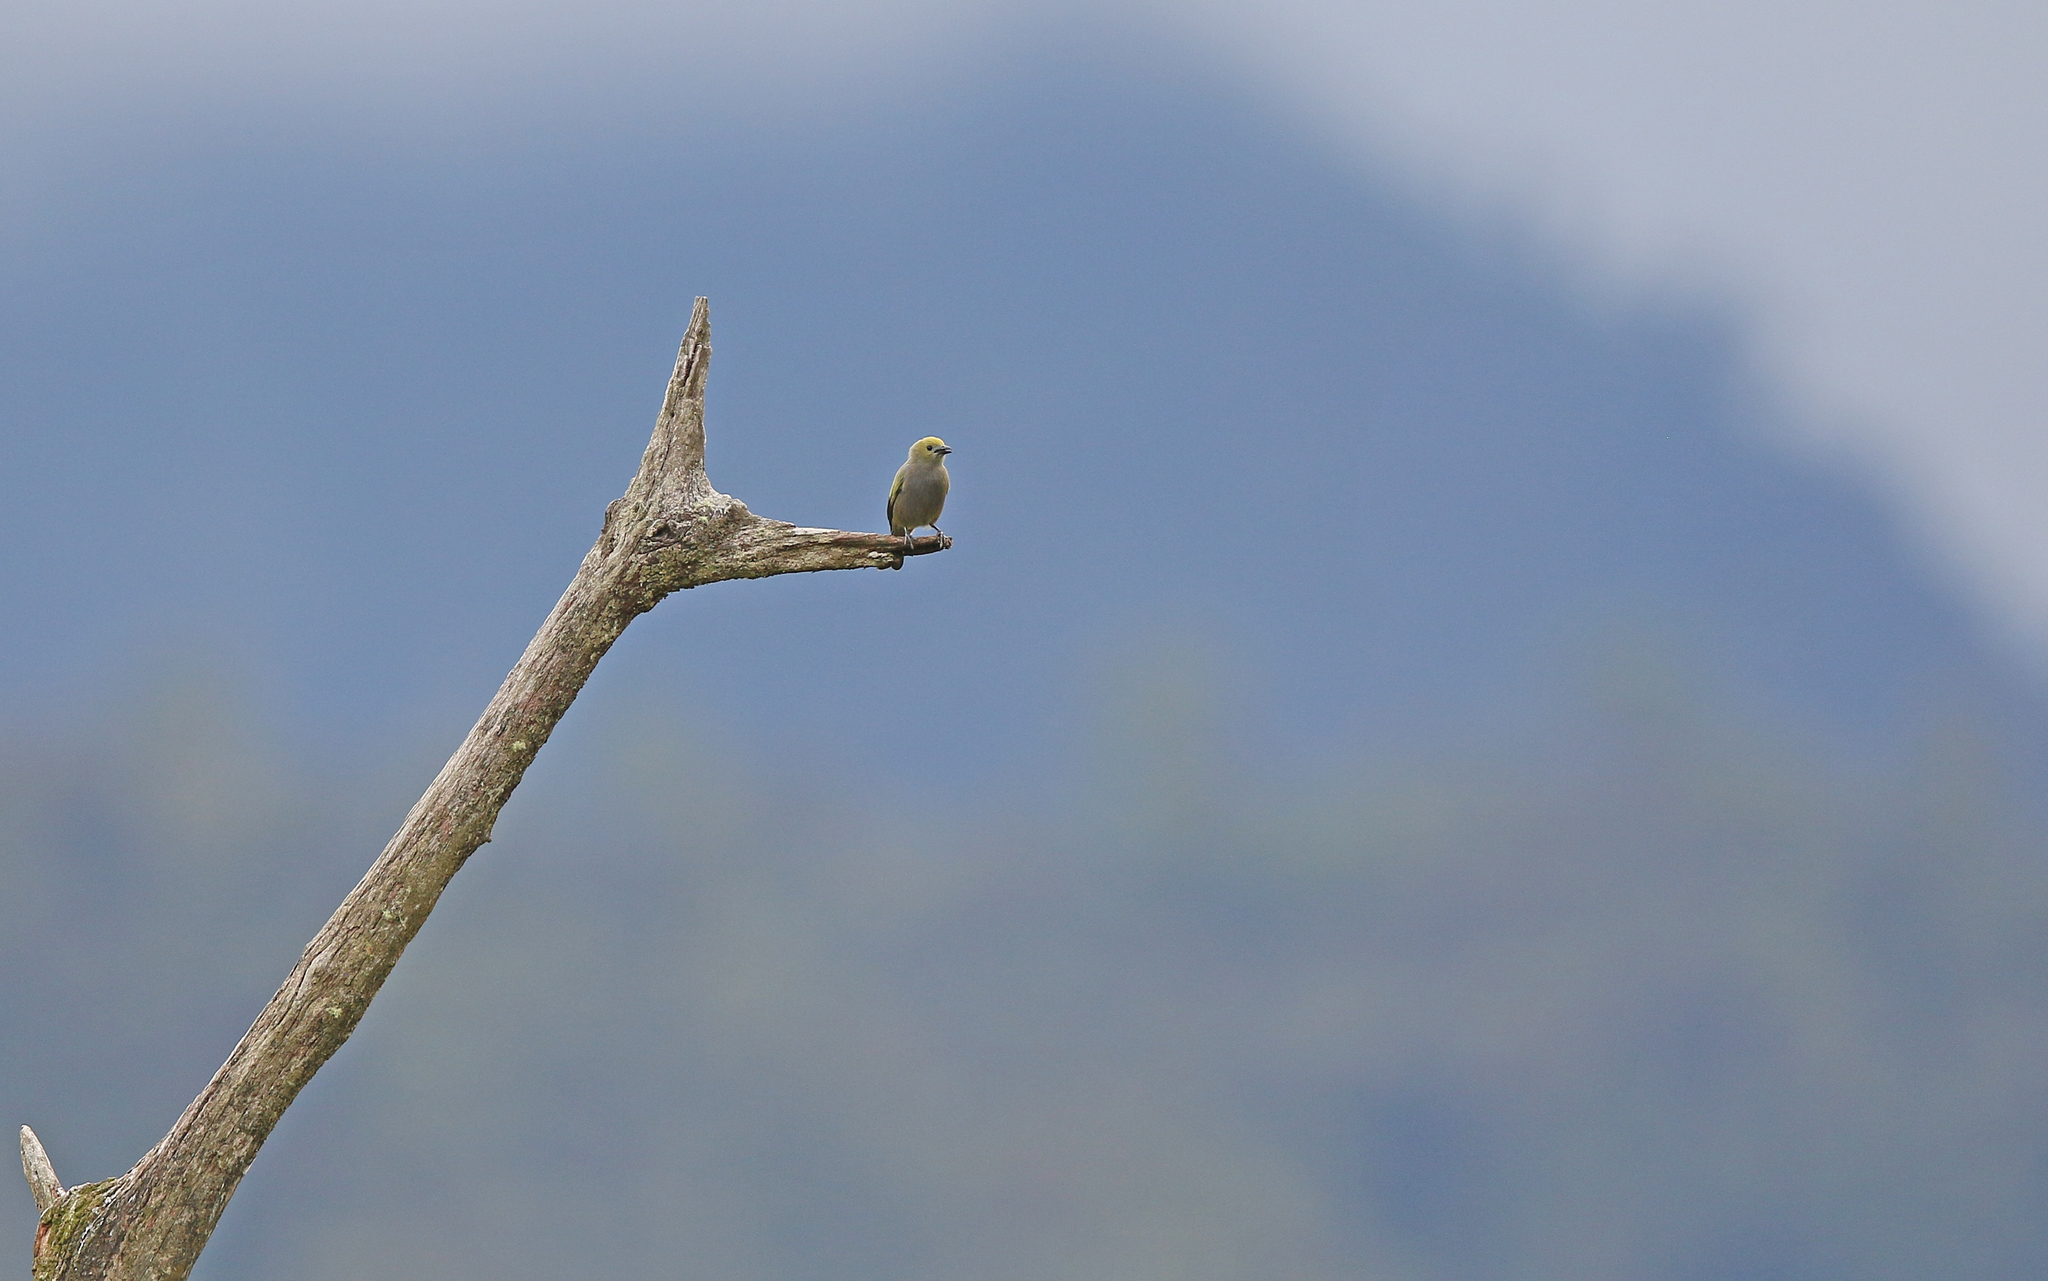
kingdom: Animalia
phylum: Chordata
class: Aves
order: Passeriformes
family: Thraupidae
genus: Thraupis
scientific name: Thraupis palmarum
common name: Palm tanager
